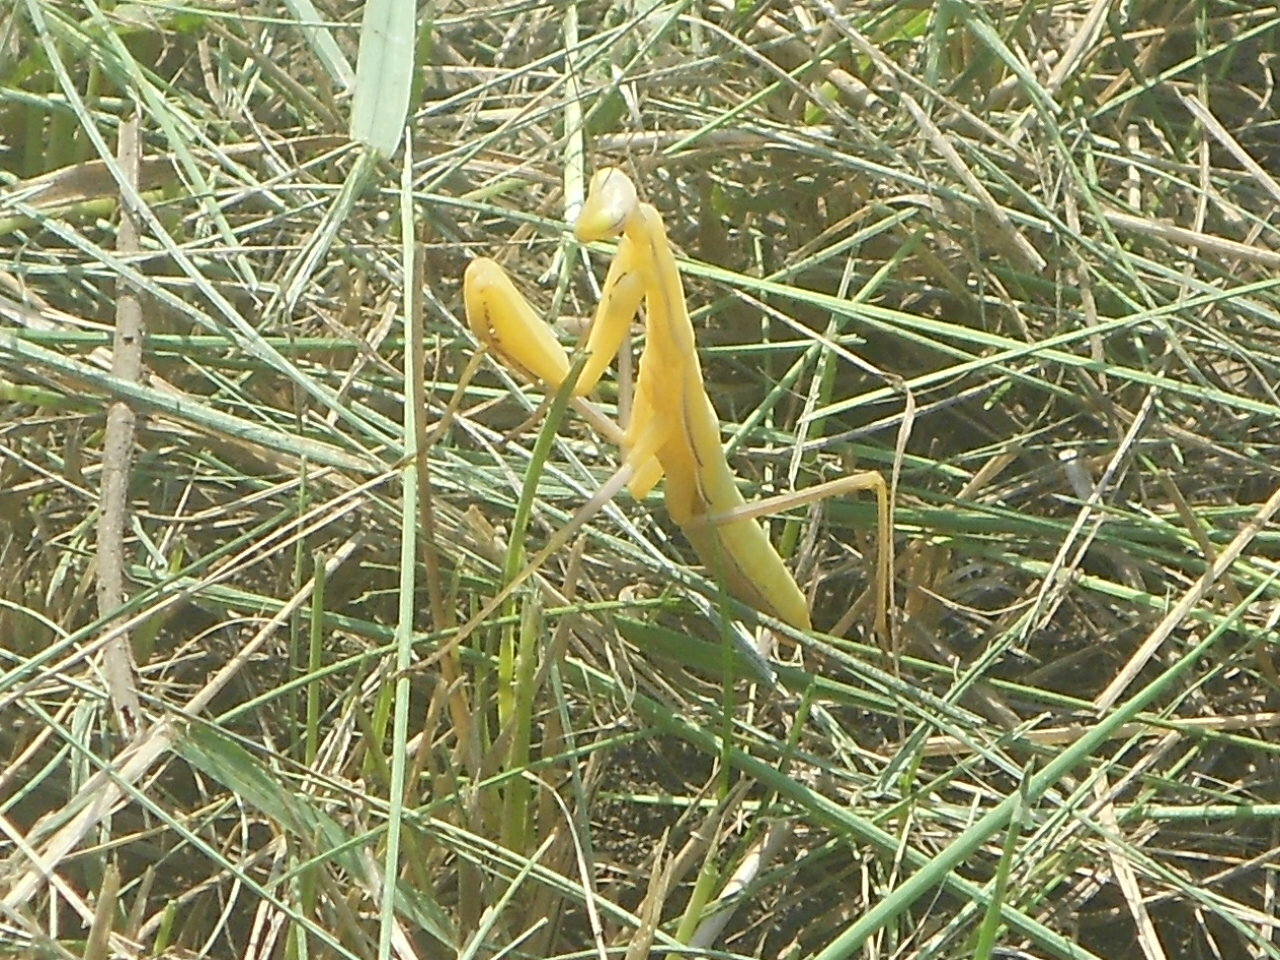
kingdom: Animalia
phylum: Arthropoda
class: Insecta
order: Mantodea
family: Mantidae
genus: Mantis
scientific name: Mantis religiosa
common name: Praying mantis
